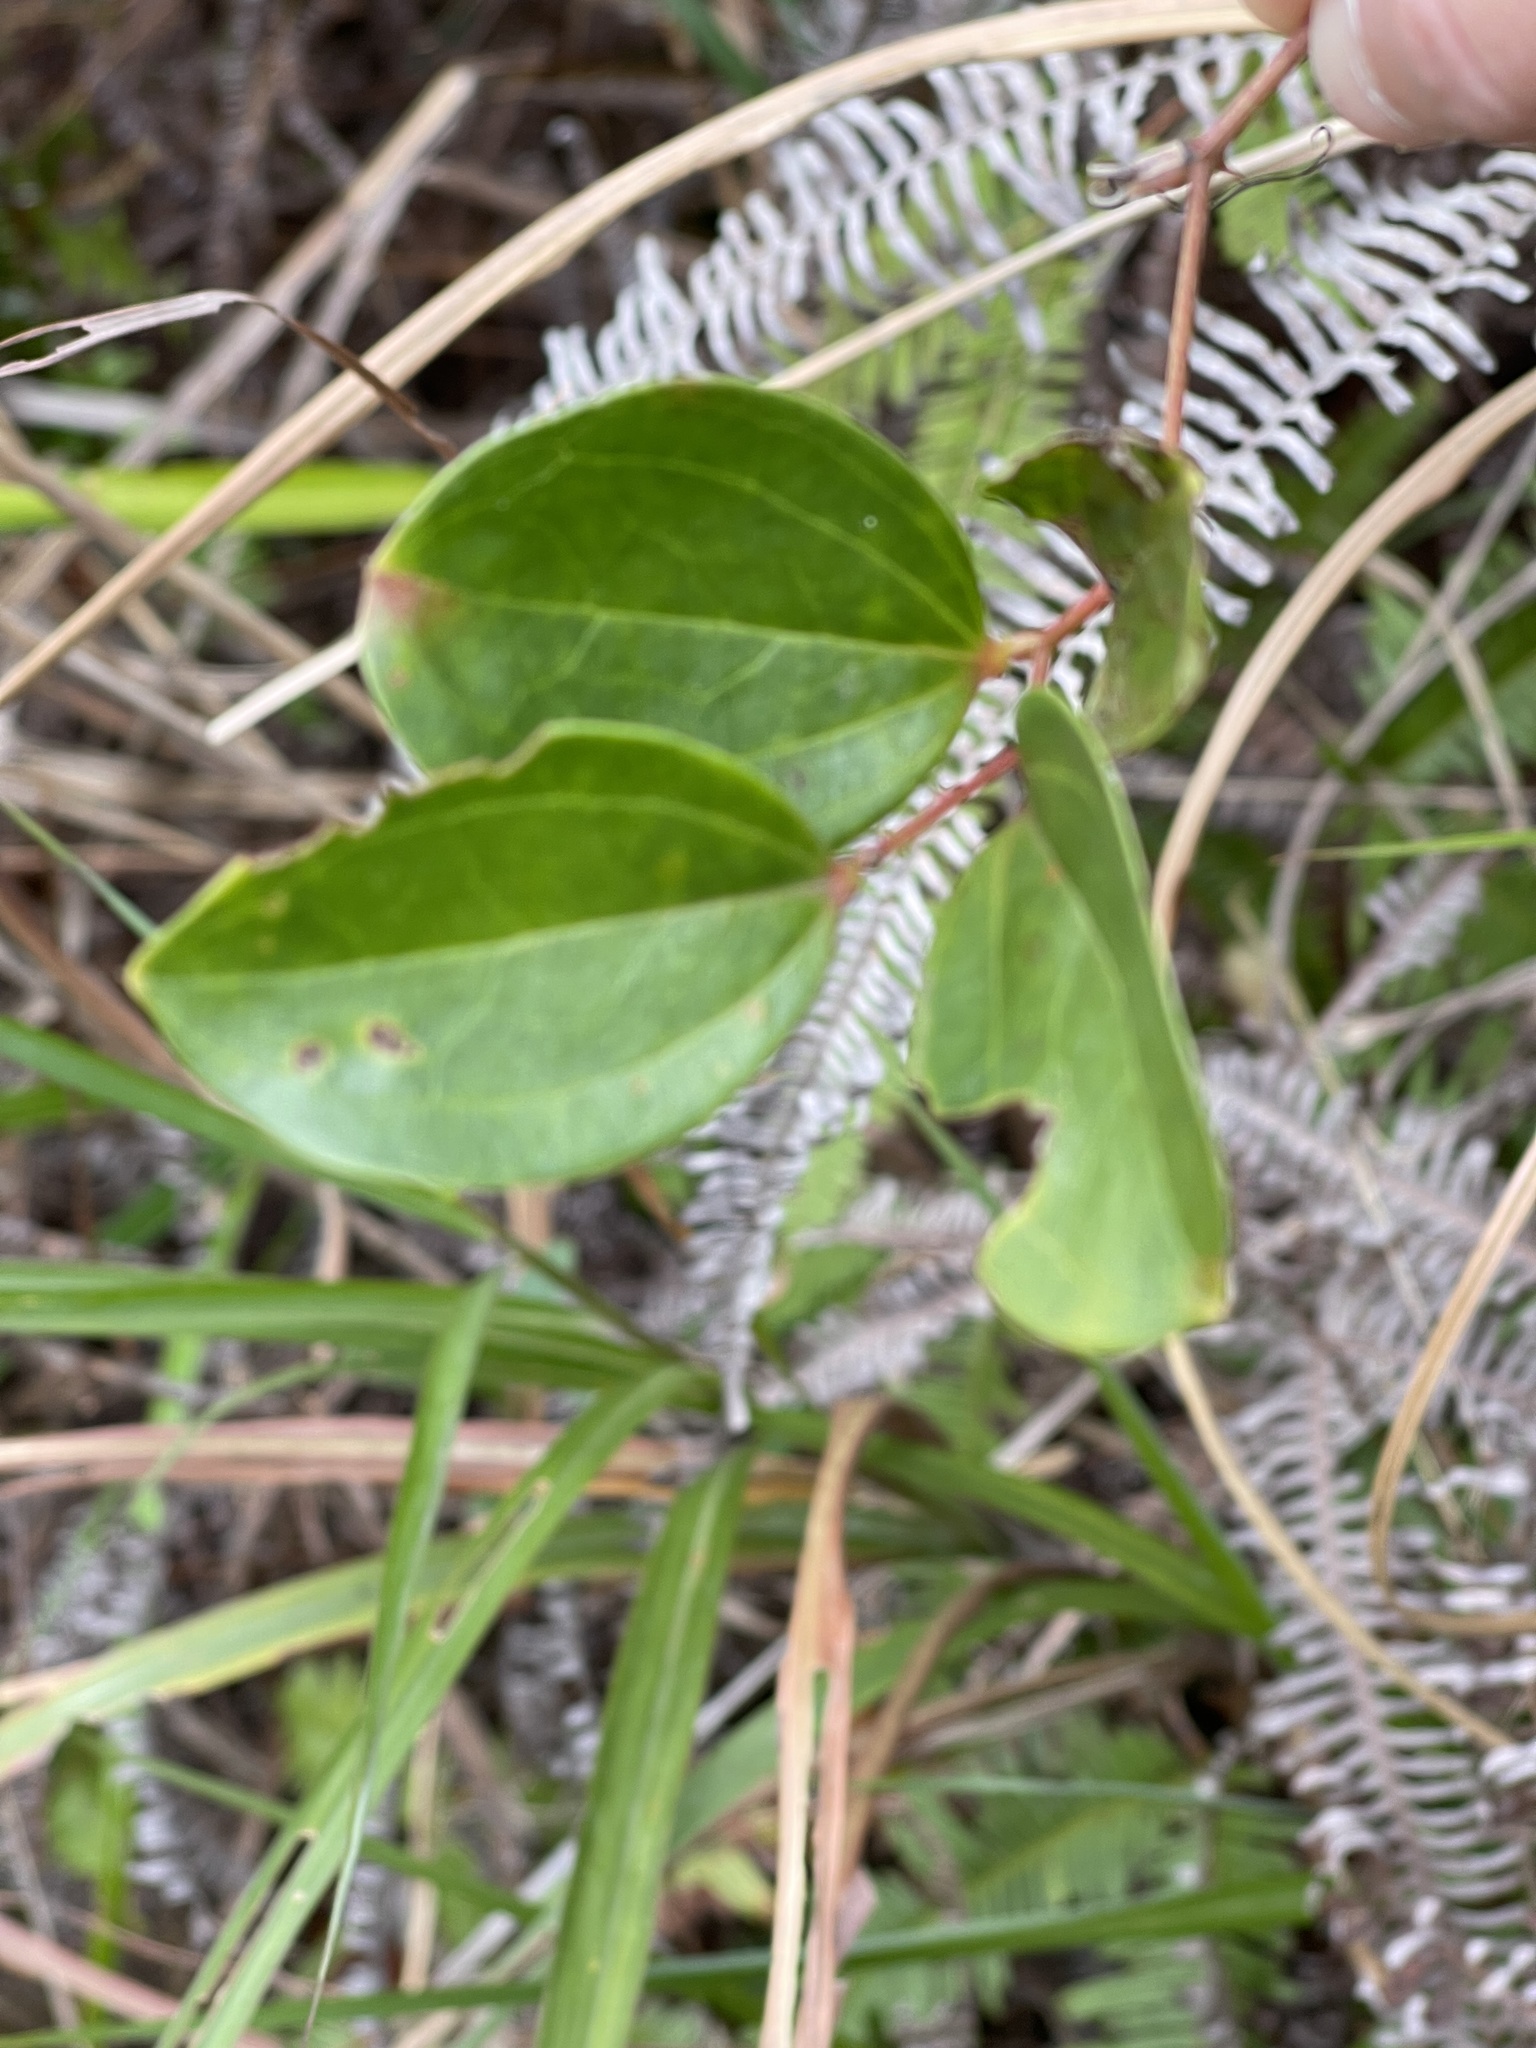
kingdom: Plantae
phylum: Tracheophyta
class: Liliopsida
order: Liliales
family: Smilacaceae
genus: Smilax
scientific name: Smilax china
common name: Chinaroot
